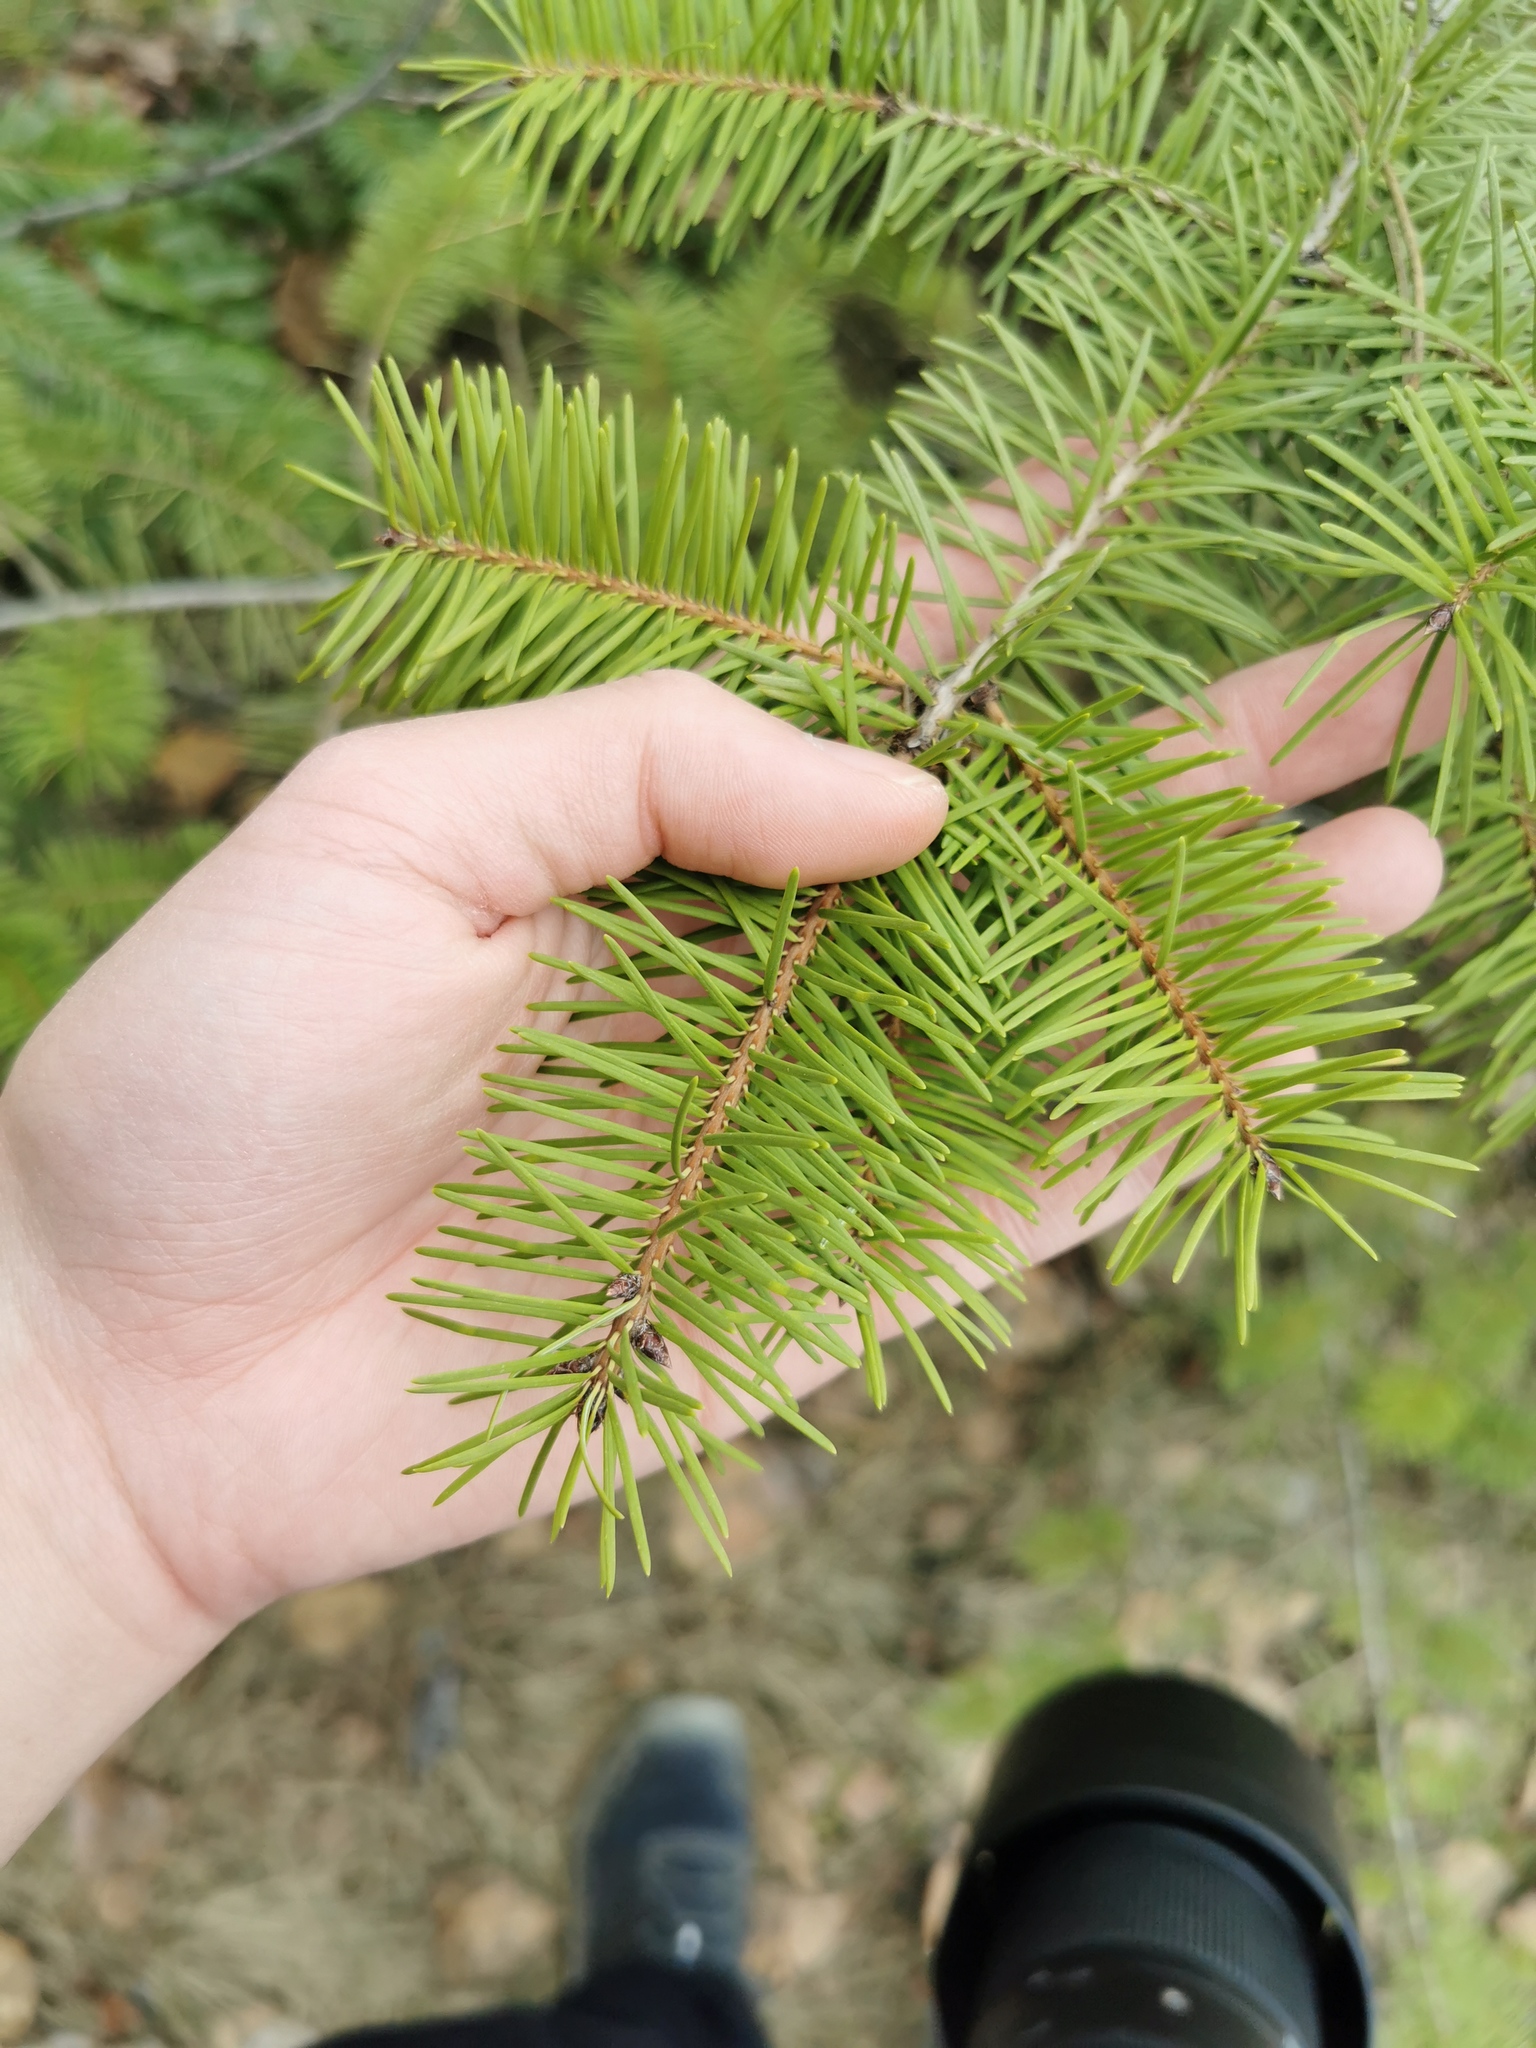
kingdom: Plantae
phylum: Tracheophyta
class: Pinopsida
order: Pinales
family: Pinaceae
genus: Pseudotsuga
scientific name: Pseudotsuga menziesii
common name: Douglas fir
